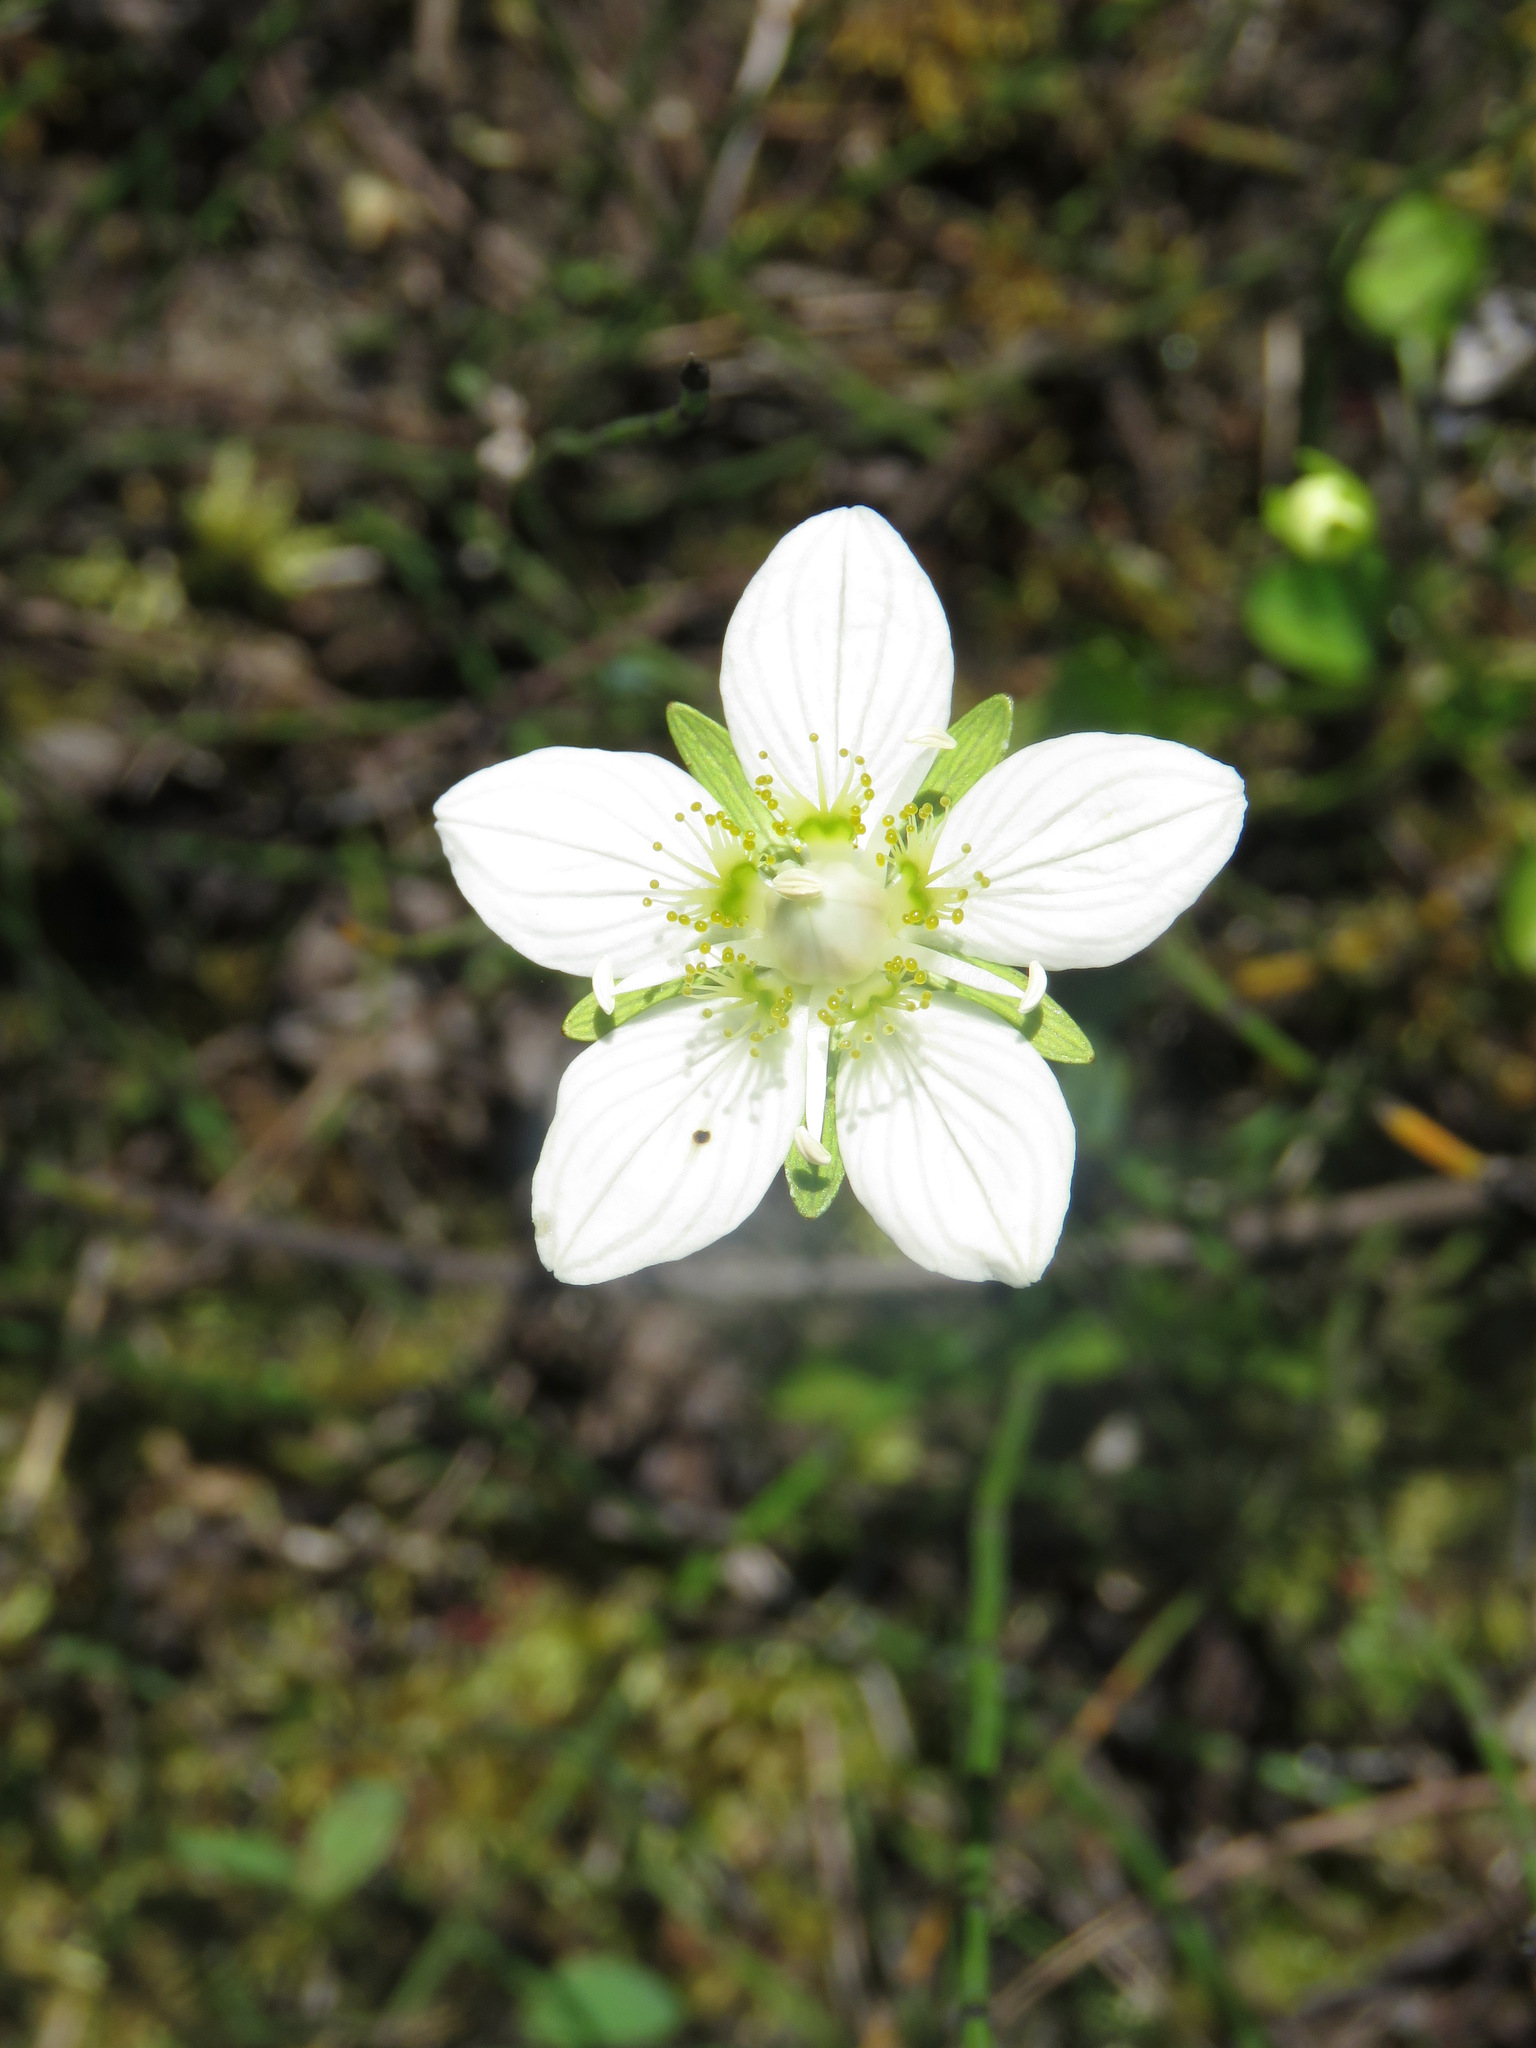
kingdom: Plantae
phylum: Tracheophyta
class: Magnoliopsida
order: Celastrales
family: Parnassiaceae
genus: Parnassia
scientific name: Parnassia palustris
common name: Grass-of-parnassus
